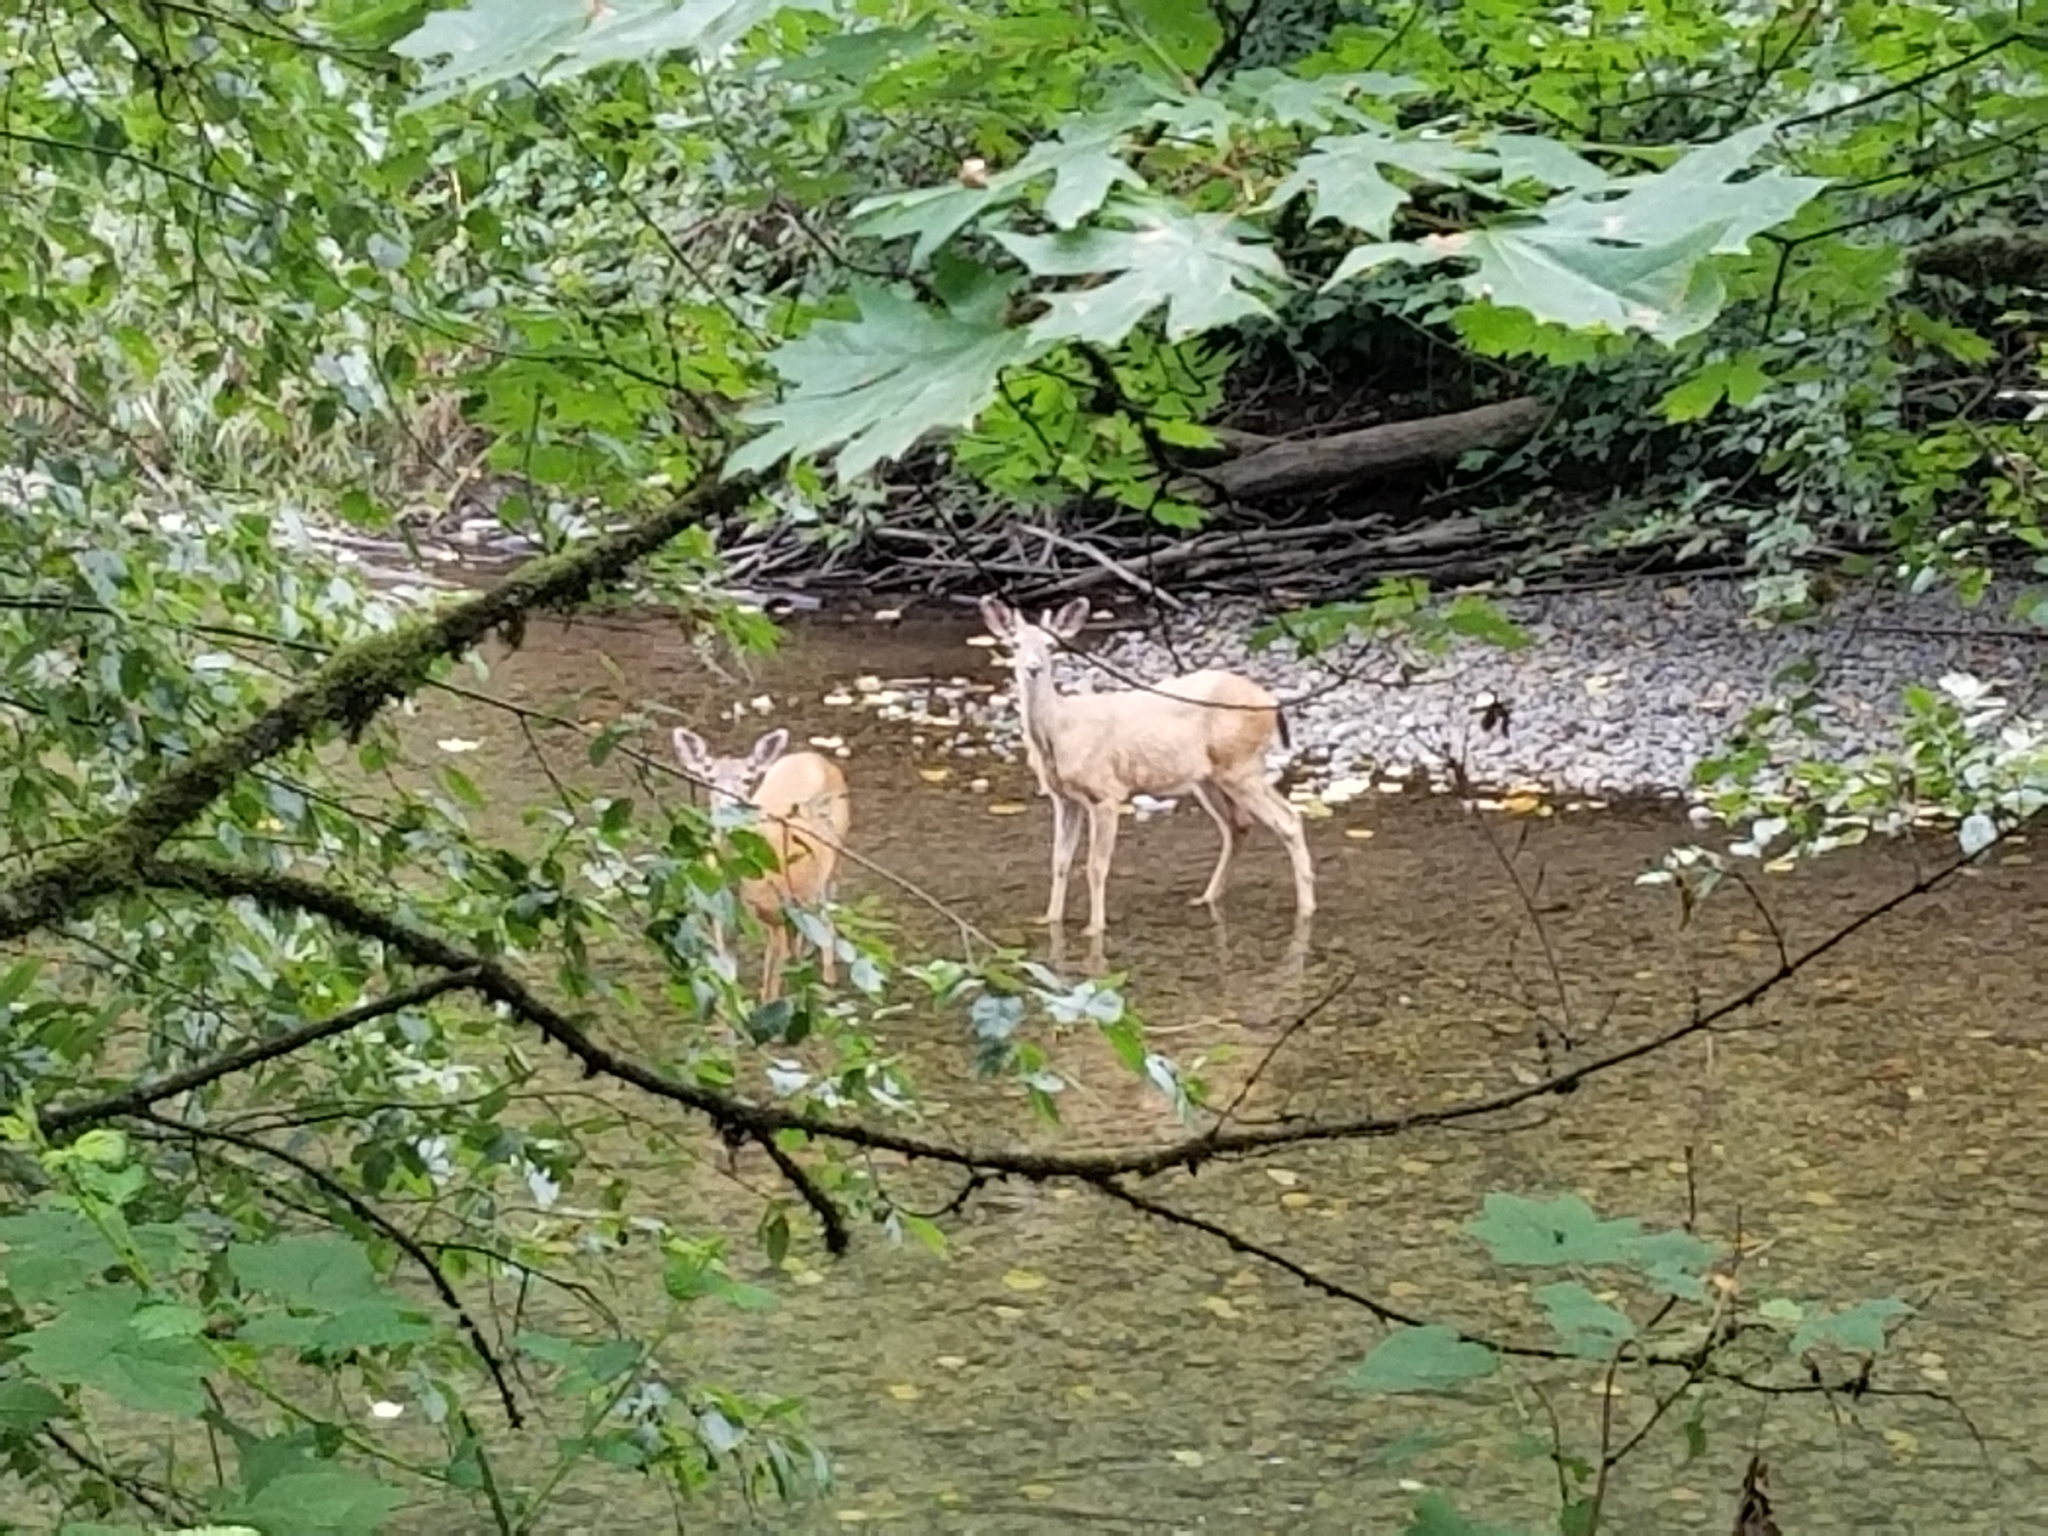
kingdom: Animalia
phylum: Chordata
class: Mammalia
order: Artiodactyla
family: Cervidae
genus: Odocoileus
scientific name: Odocoileus hemionus
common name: Mule deer
